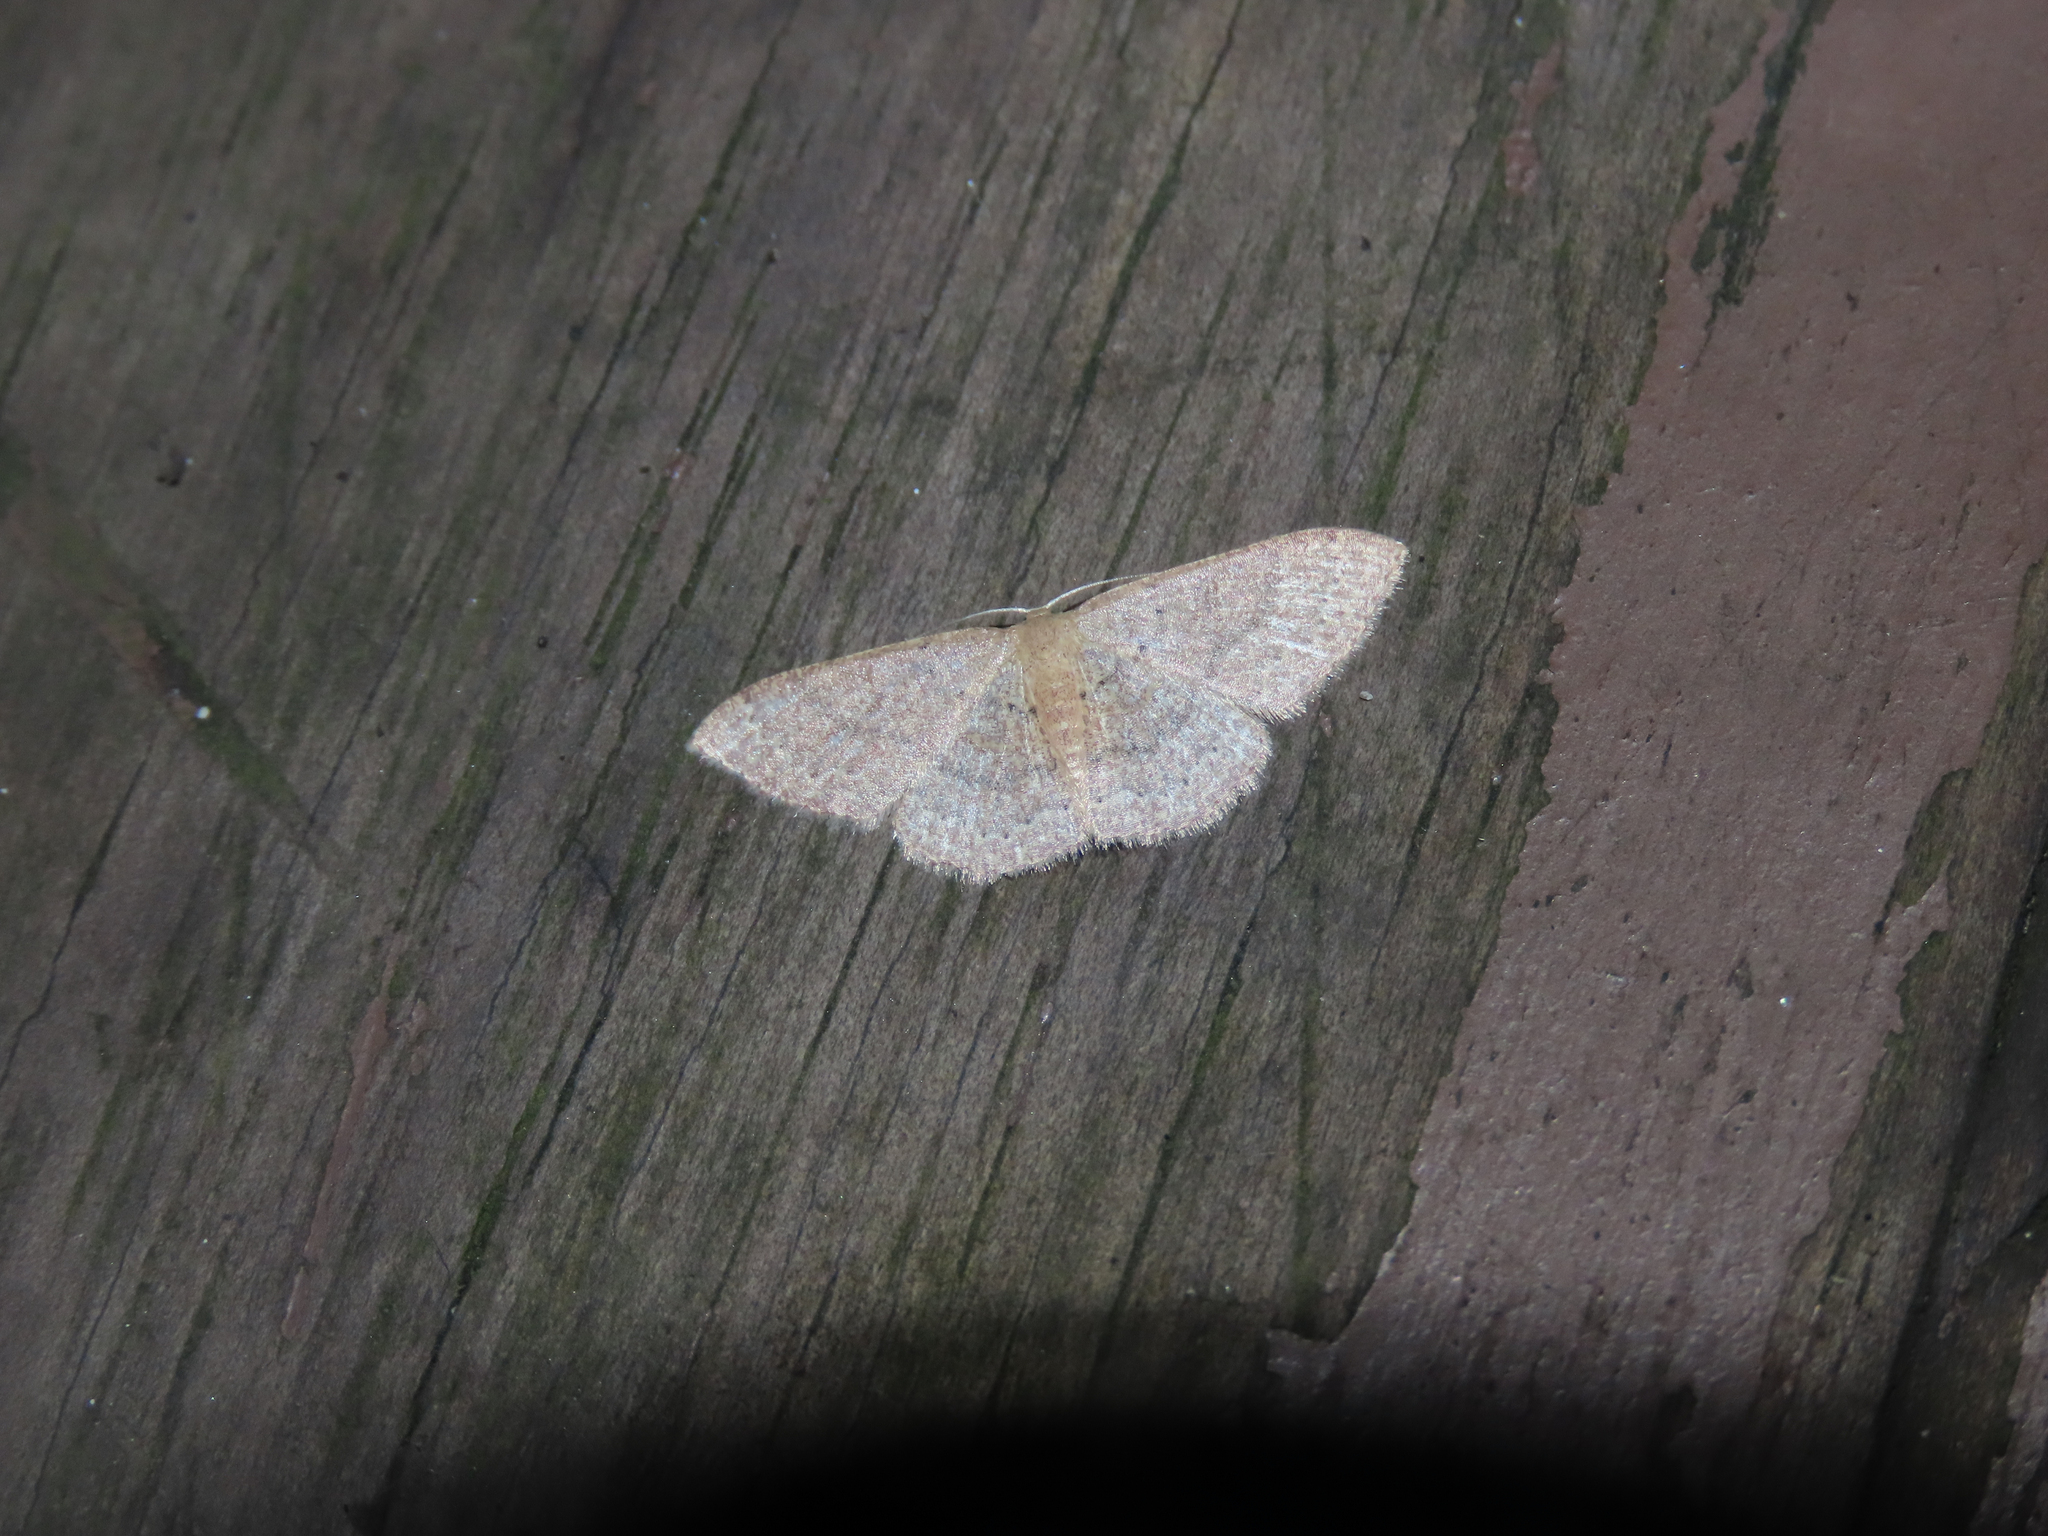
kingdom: Animalia
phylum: Arthropoda
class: Insecta
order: Lepidoptera
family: Geometridae
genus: Pleuroprucha
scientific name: Pleuroprucha insulsaria
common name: Common tan wave
